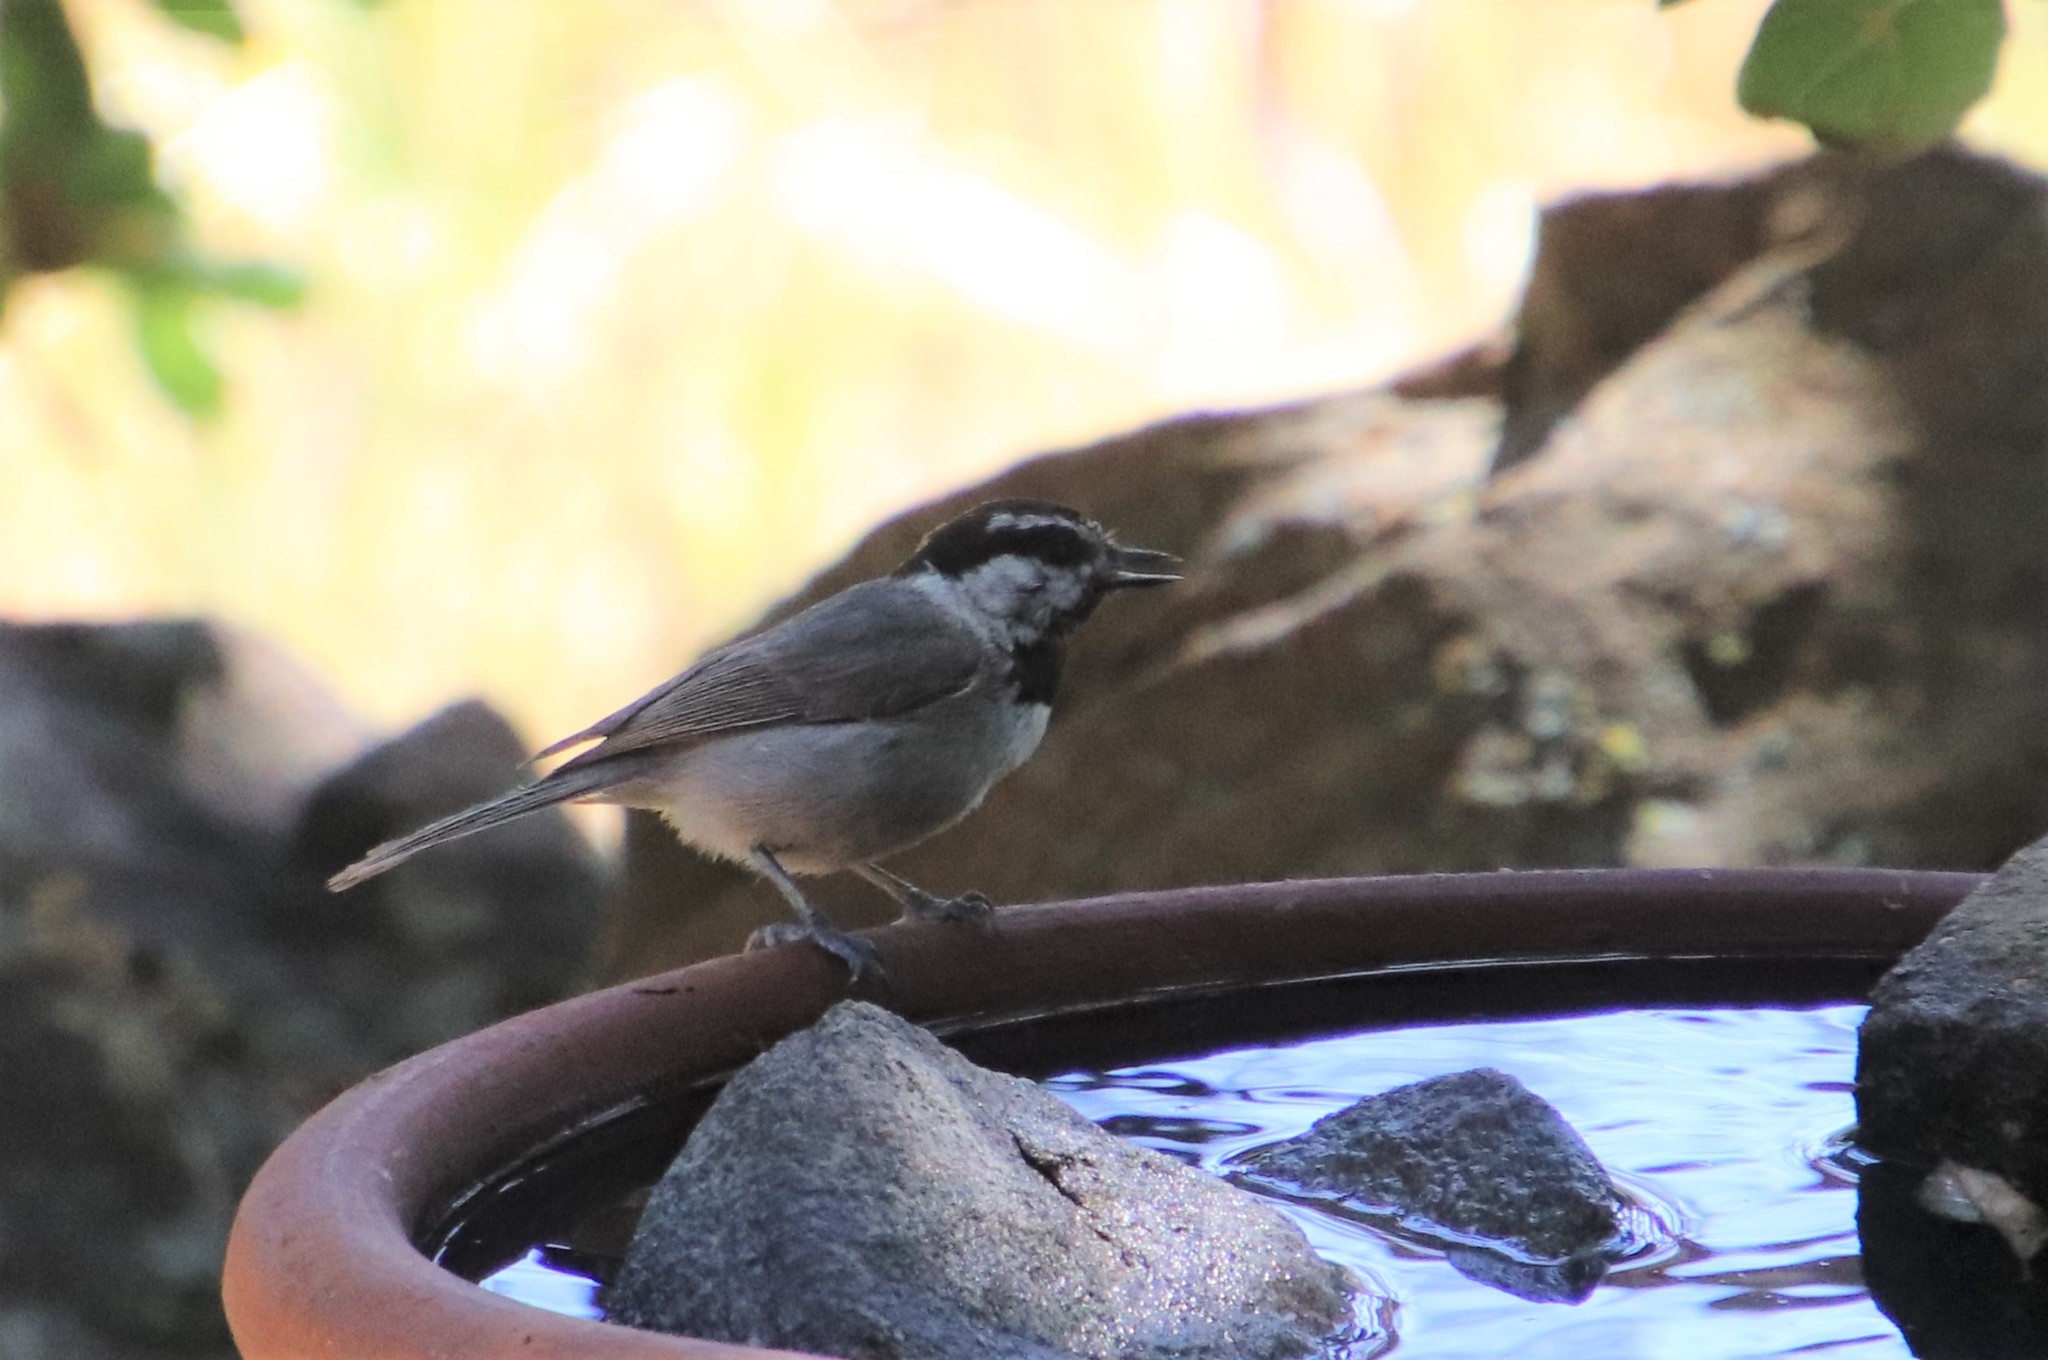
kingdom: Animalia
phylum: Chordata
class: Aves
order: Passeriformes
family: Paridae
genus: Poecile
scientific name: Poecile gambeli
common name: Mountain chickadee
